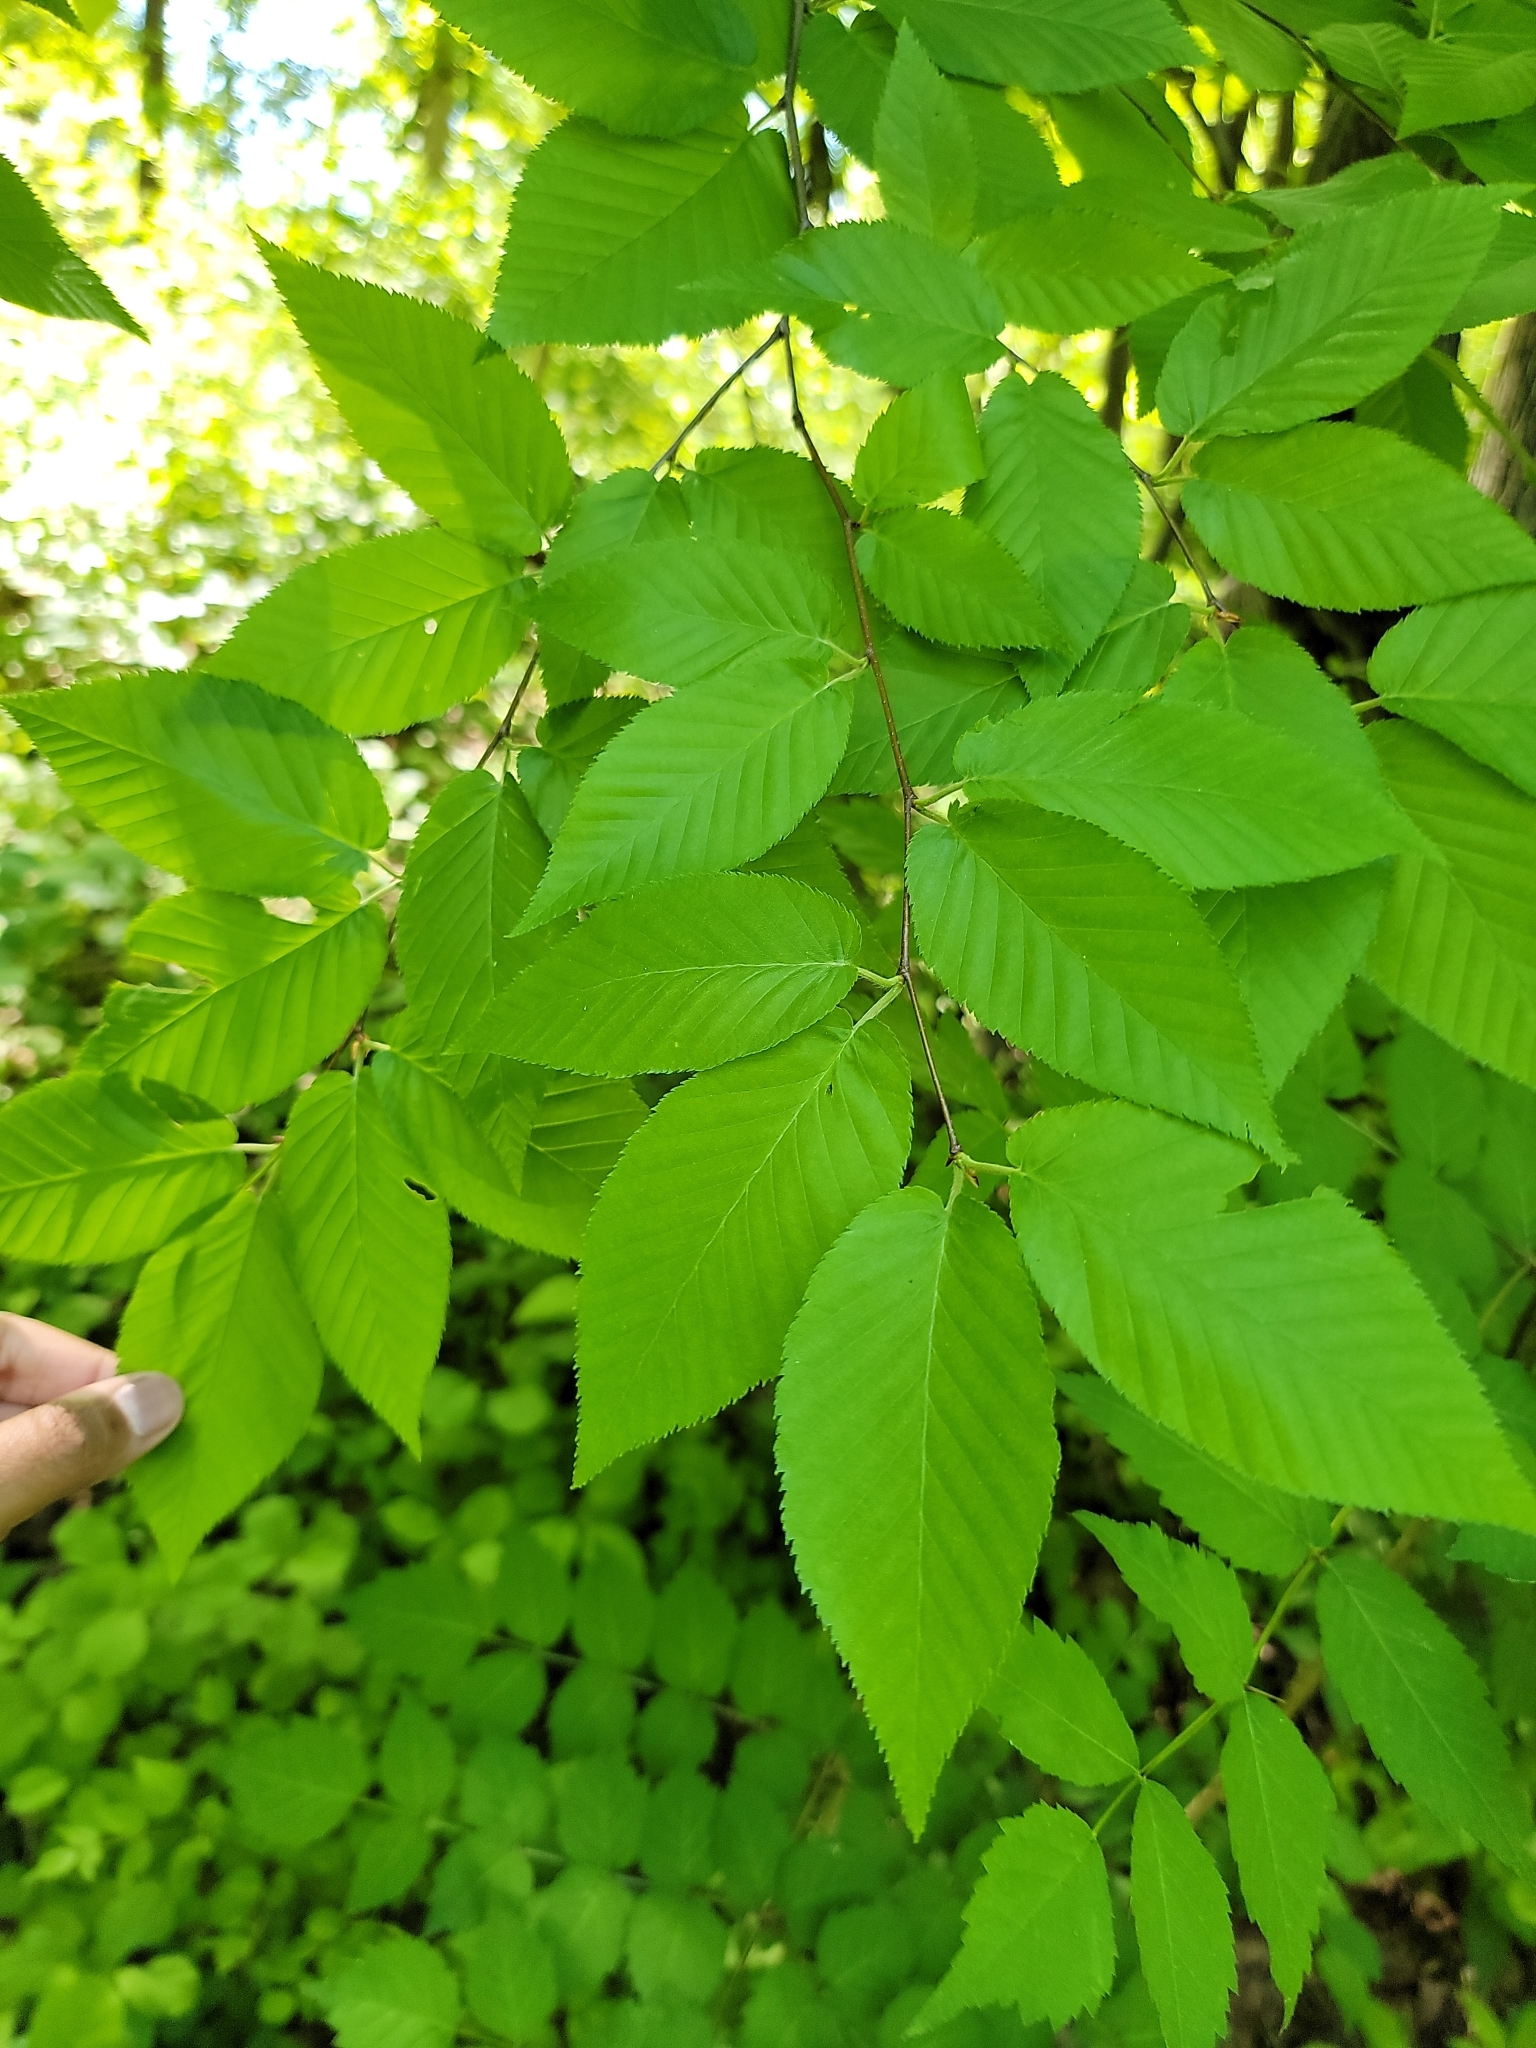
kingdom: Plantae
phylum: Tracheophyta
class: Magnoliopsida
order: Fagales
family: Betulaceae
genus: Betula
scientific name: Betula lenta
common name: Black birch
